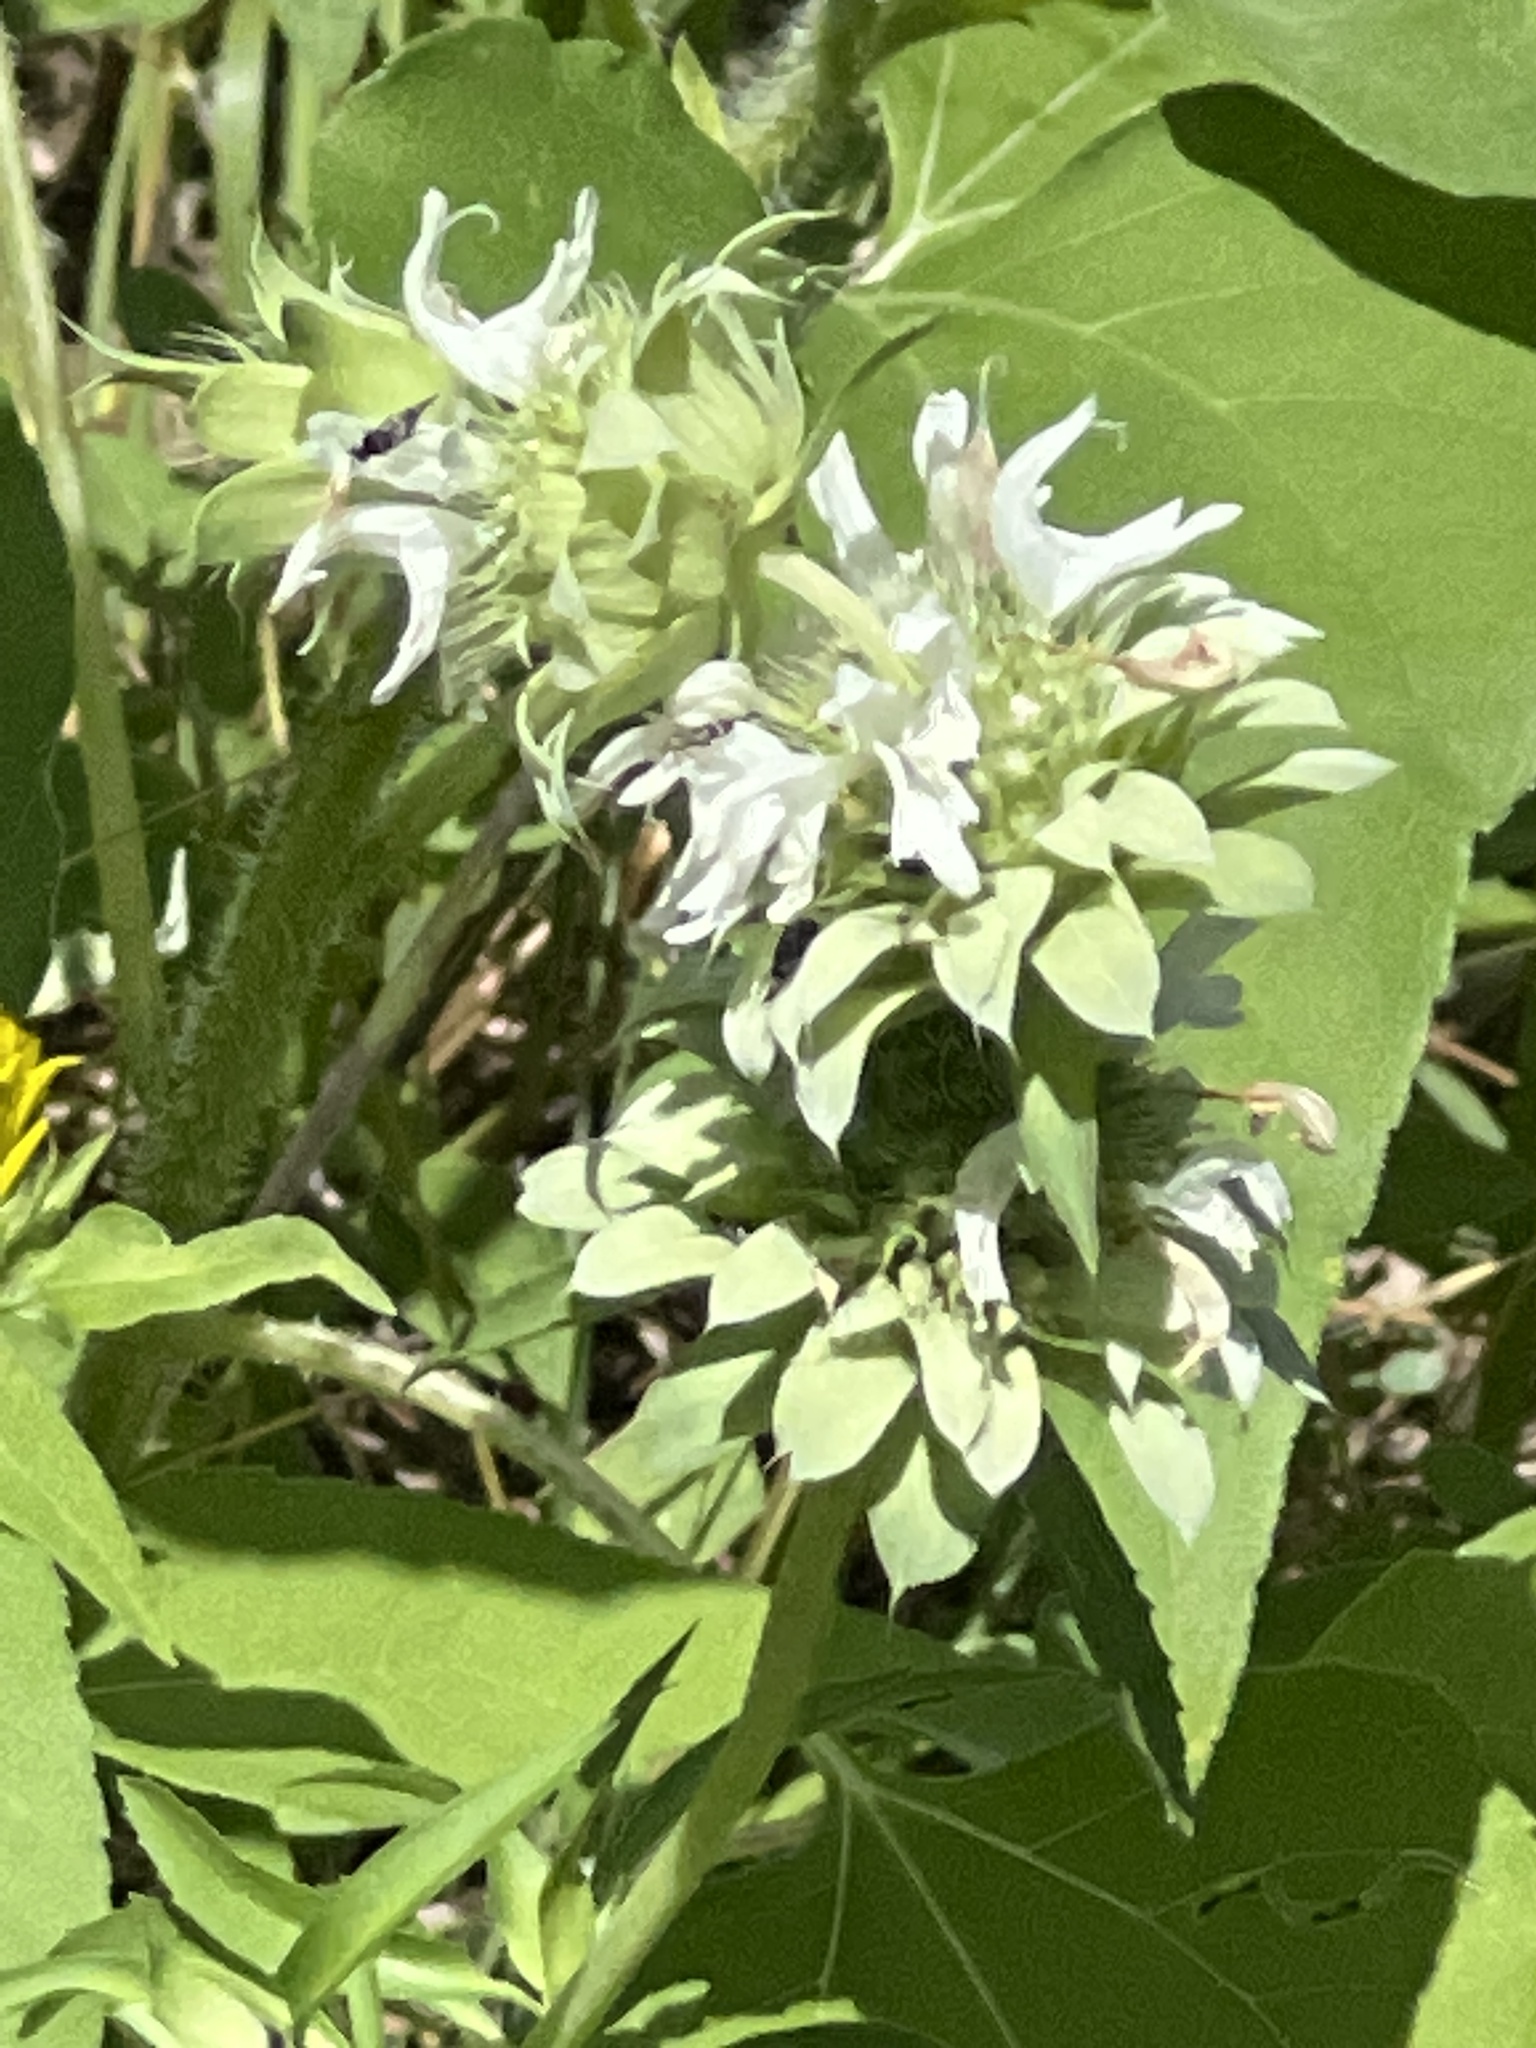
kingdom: Plantae
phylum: Tracheophyta
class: Magnoliopsida
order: Lamiales
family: Lamiaceae
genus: Monarda
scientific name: Monarda citriodora
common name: Lemon beebalm
